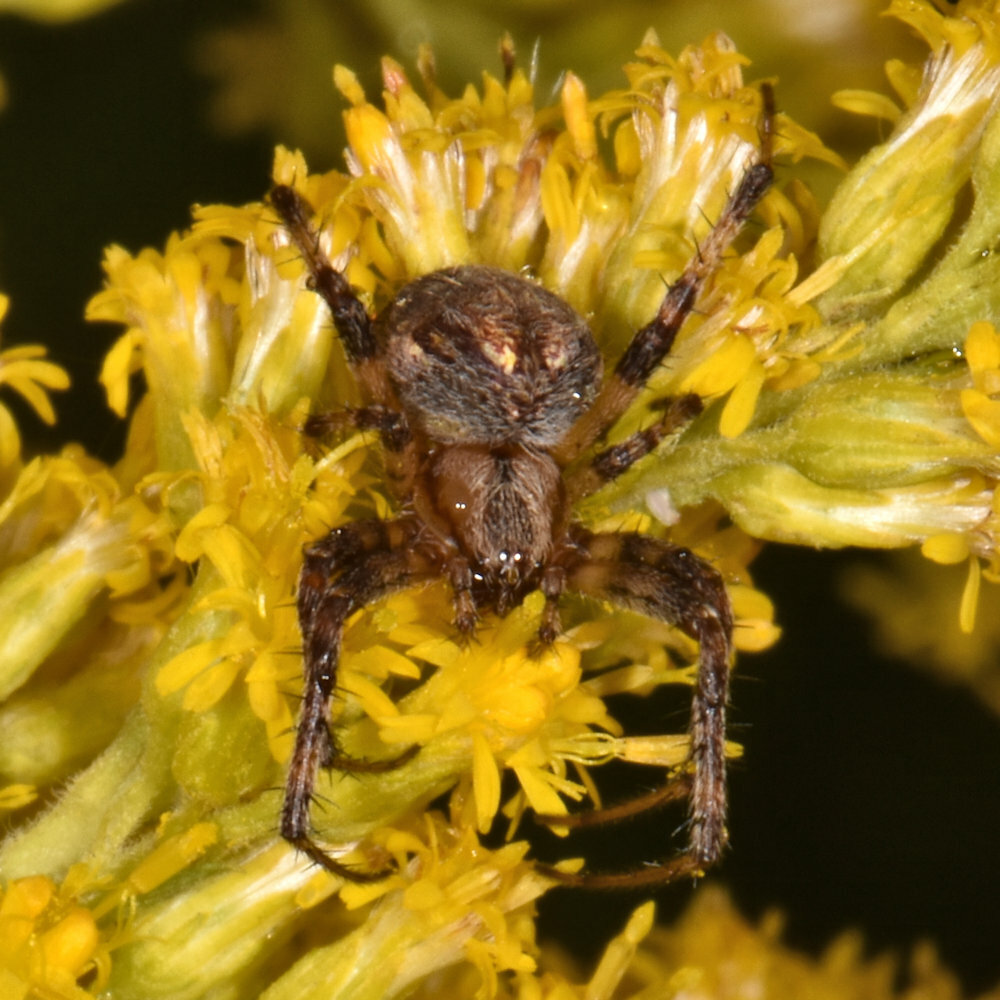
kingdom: Animalia
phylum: Arthropoda
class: Arachnida
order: Araneae
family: Araneidae
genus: Neoscona
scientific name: Neoscona arabesca
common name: Orb weavers
